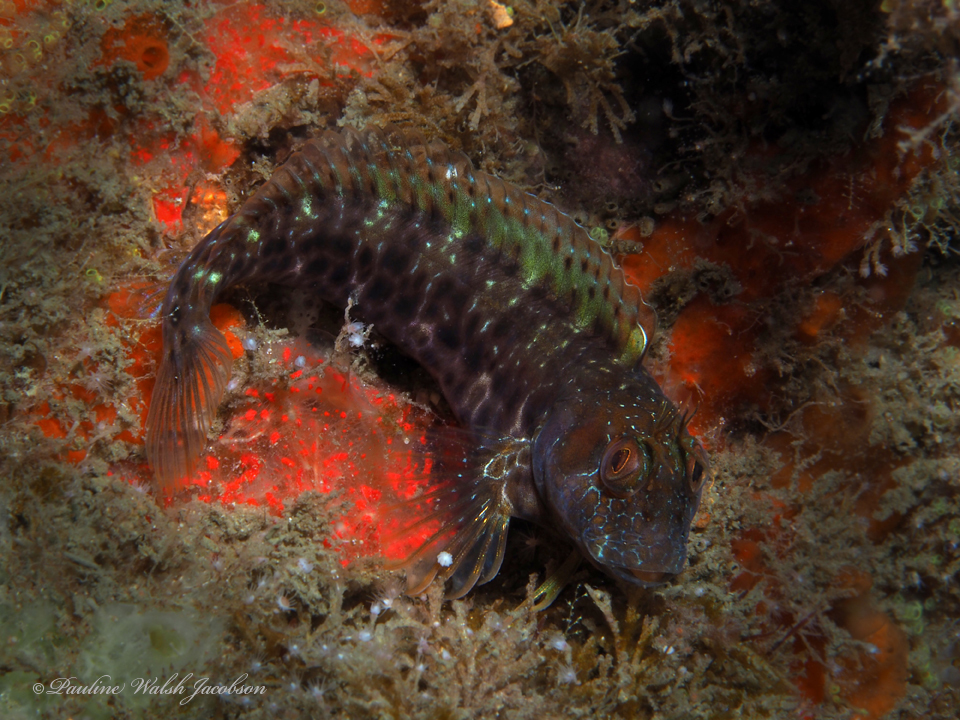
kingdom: Animalia
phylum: Chordata
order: Perciformes
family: Blenniidae
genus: Parablennius
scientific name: Parablennius marmoreus
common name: Seaweed blenny
